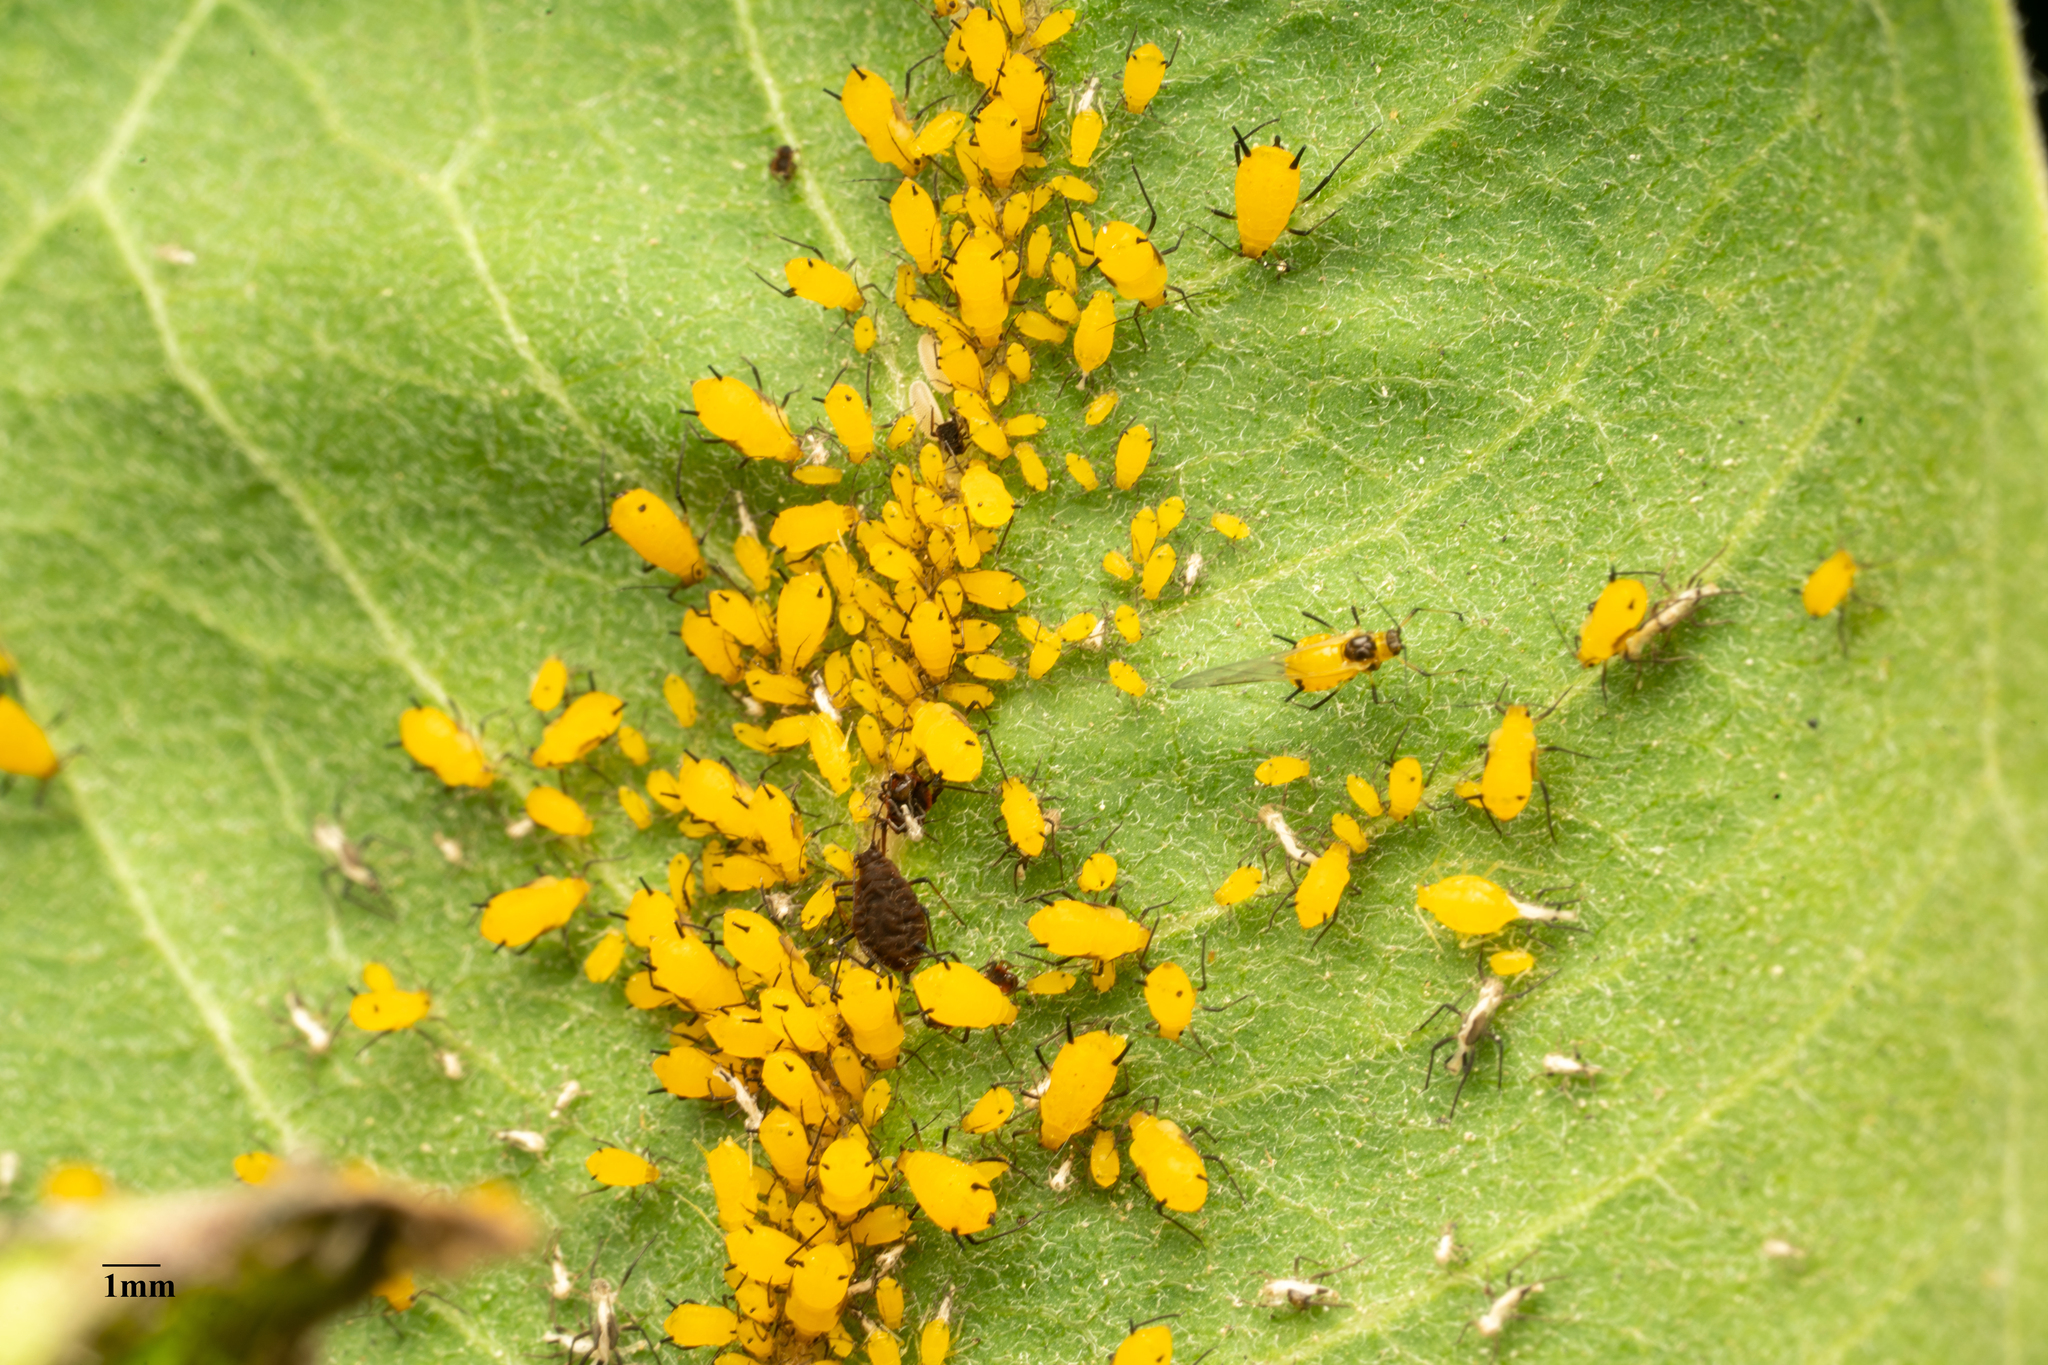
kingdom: Animalia
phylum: Arthropoda
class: Insecta
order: Hemiptera
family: Aphididae
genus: Aphis
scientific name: Aphis nerii
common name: Oleander aphid
